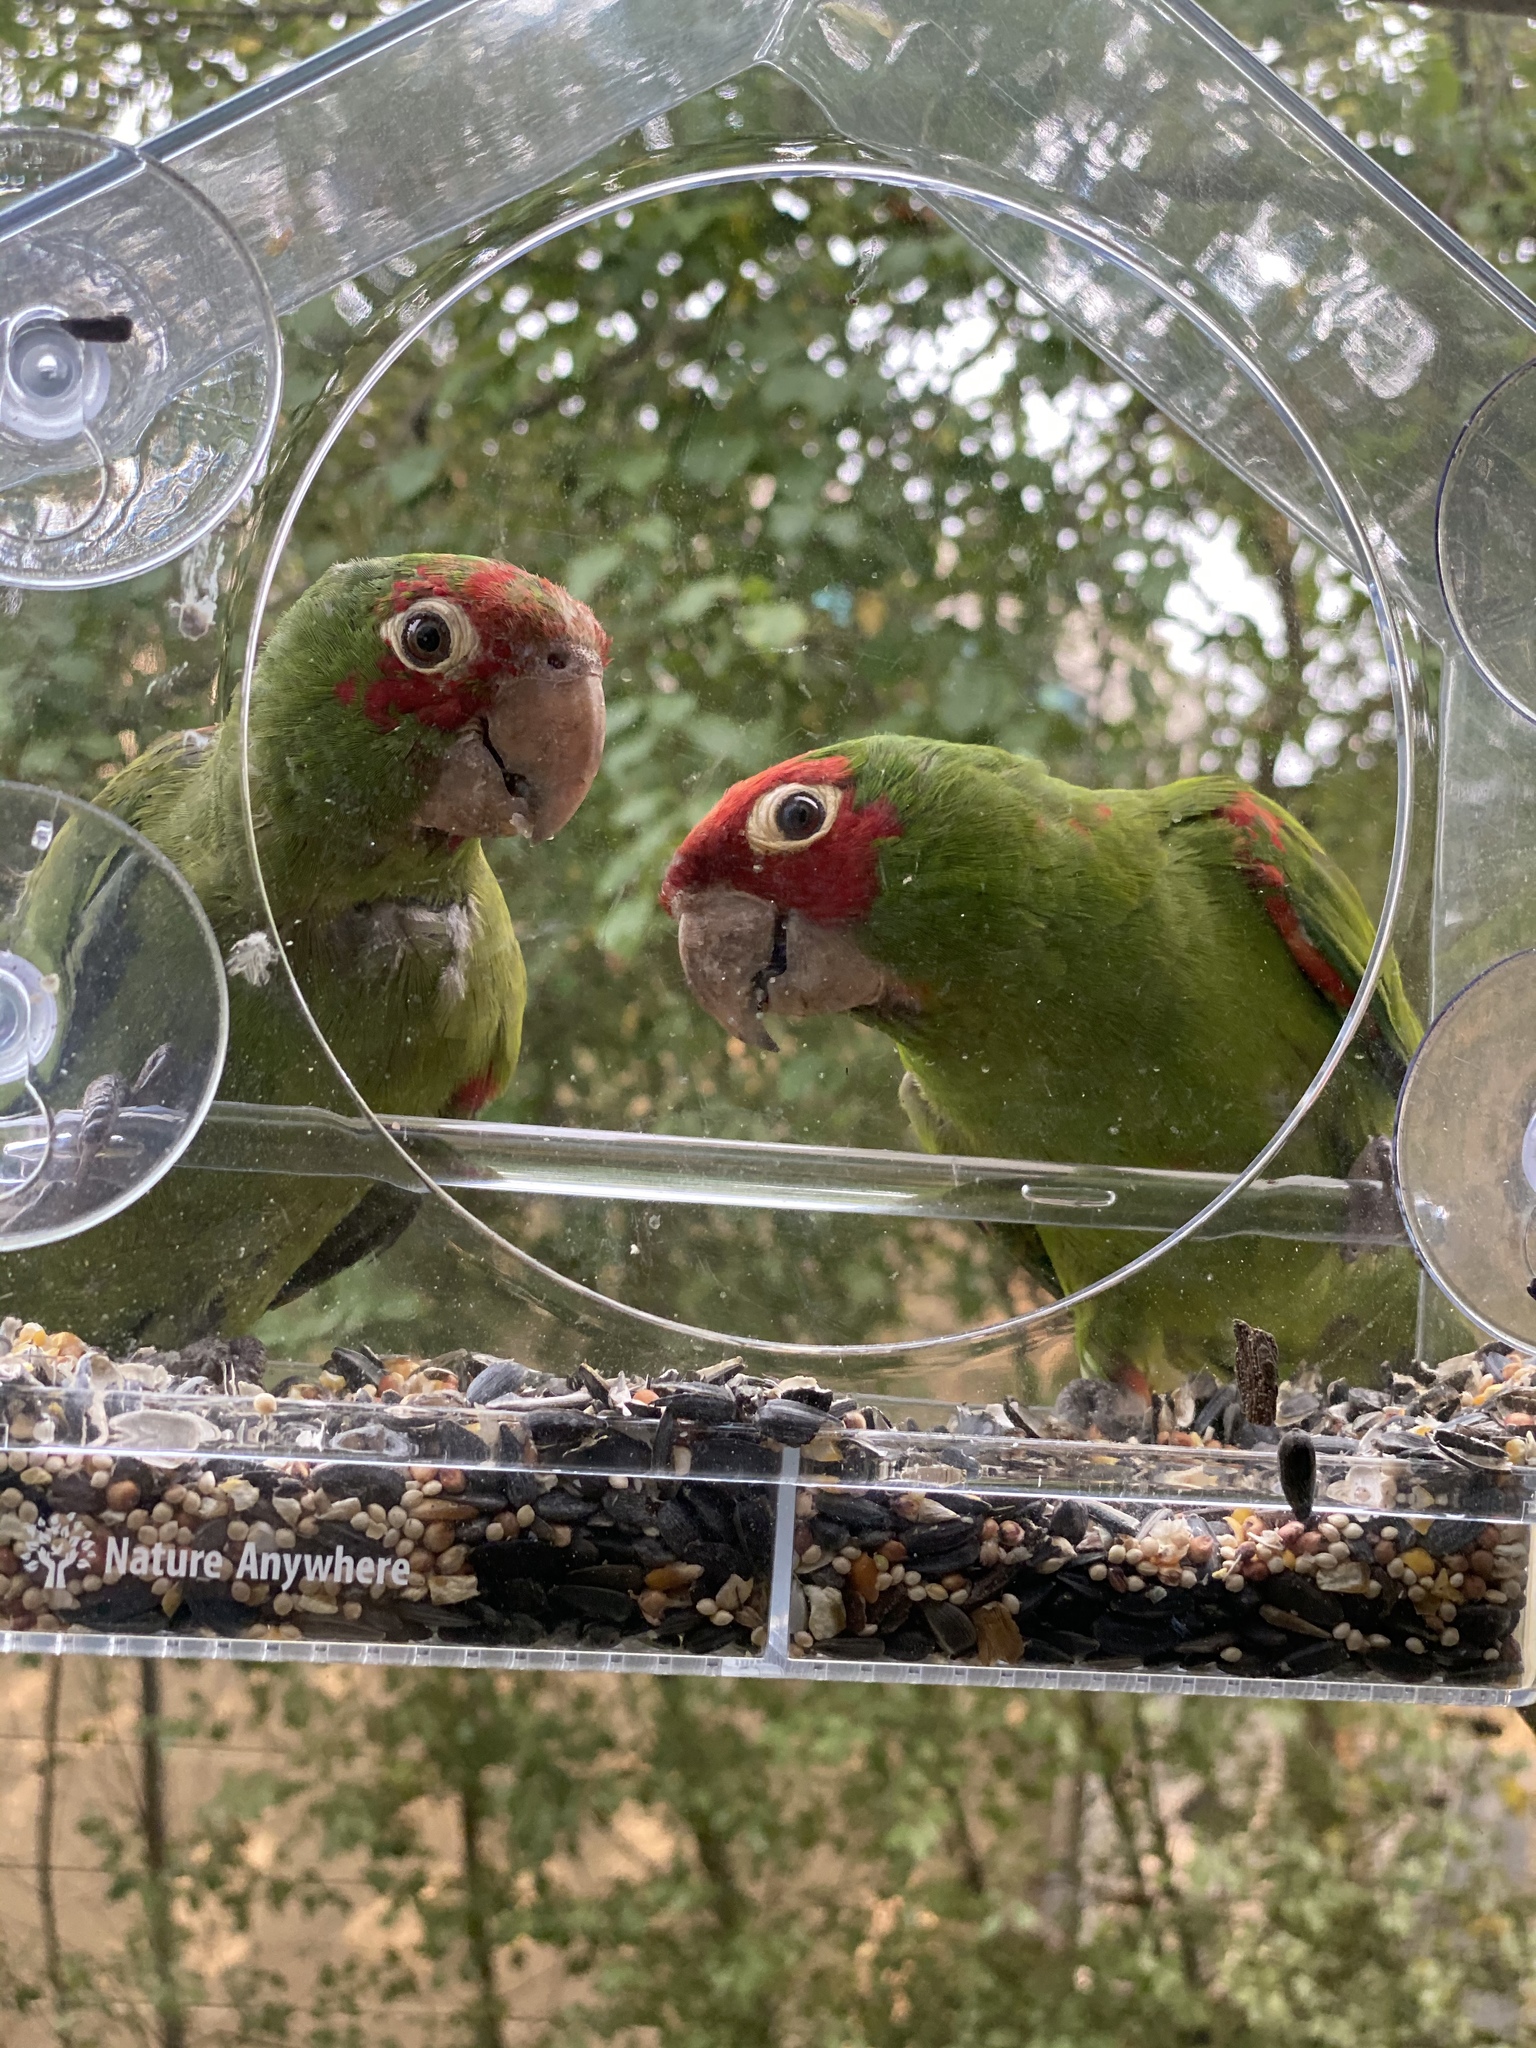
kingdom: Animalia
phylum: Chordata
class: Aves
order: Psittaciformes
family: Psittacidae
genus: Aratinga
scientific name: Aratinga erythrogenys
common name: Red-masked parakeet
